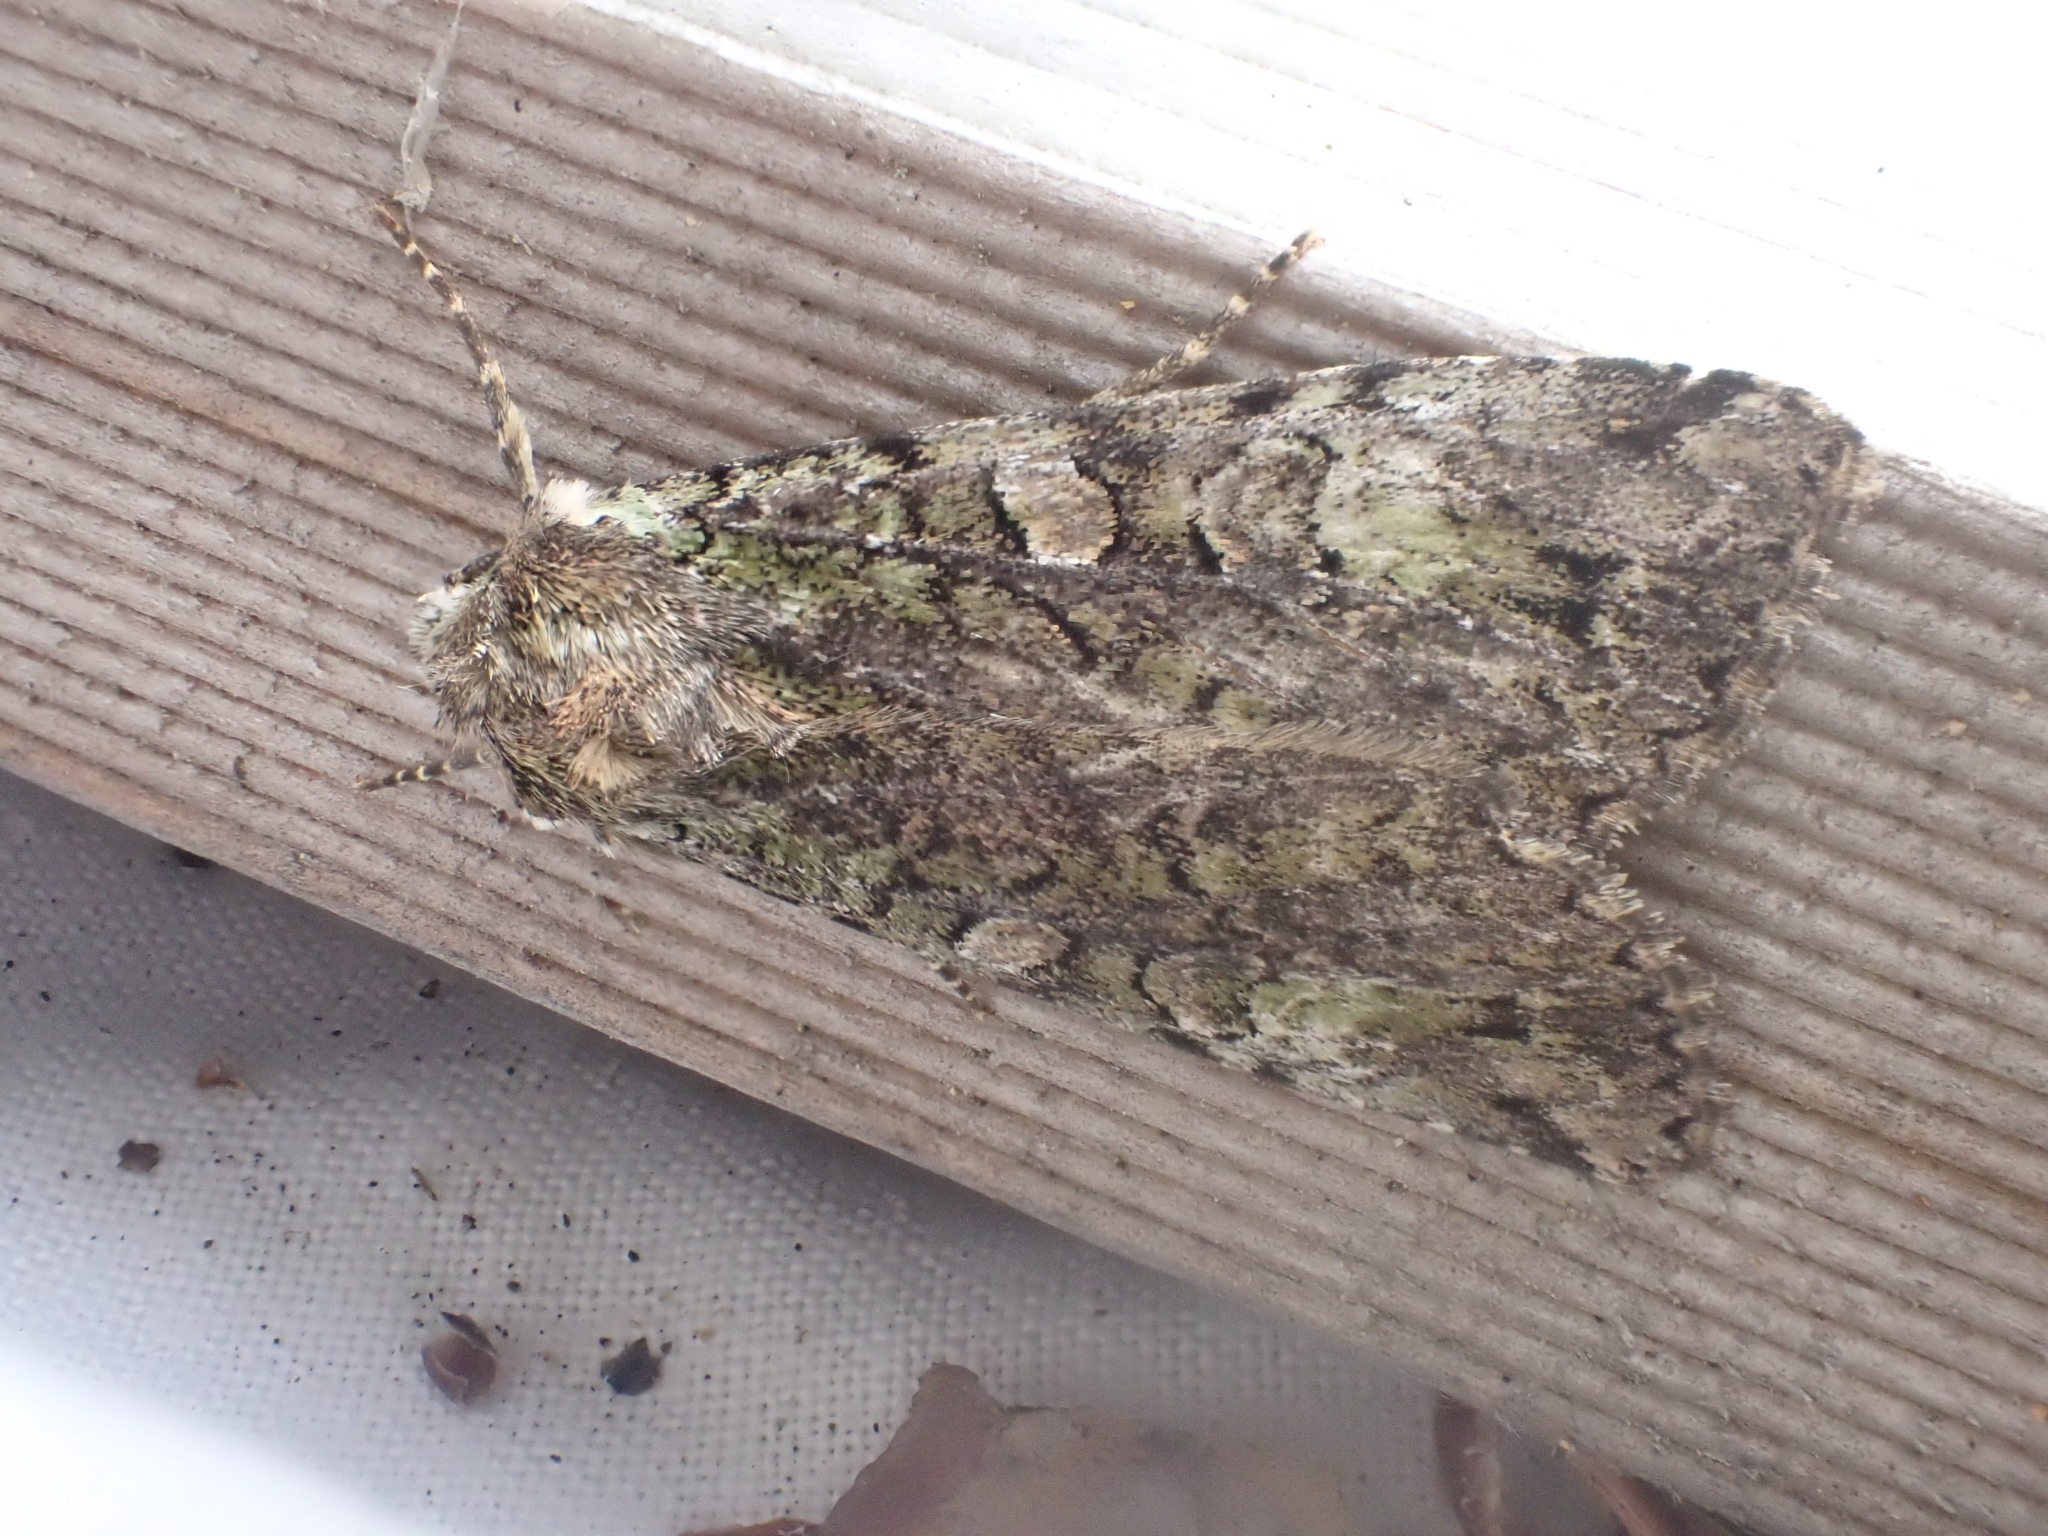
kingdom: Animalia
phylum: Arthropoda
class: Insecta
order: Lepidoptera
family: Noctuidae
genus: Anaplectoides
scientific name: Anaplectoides prasina
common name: Green arches
